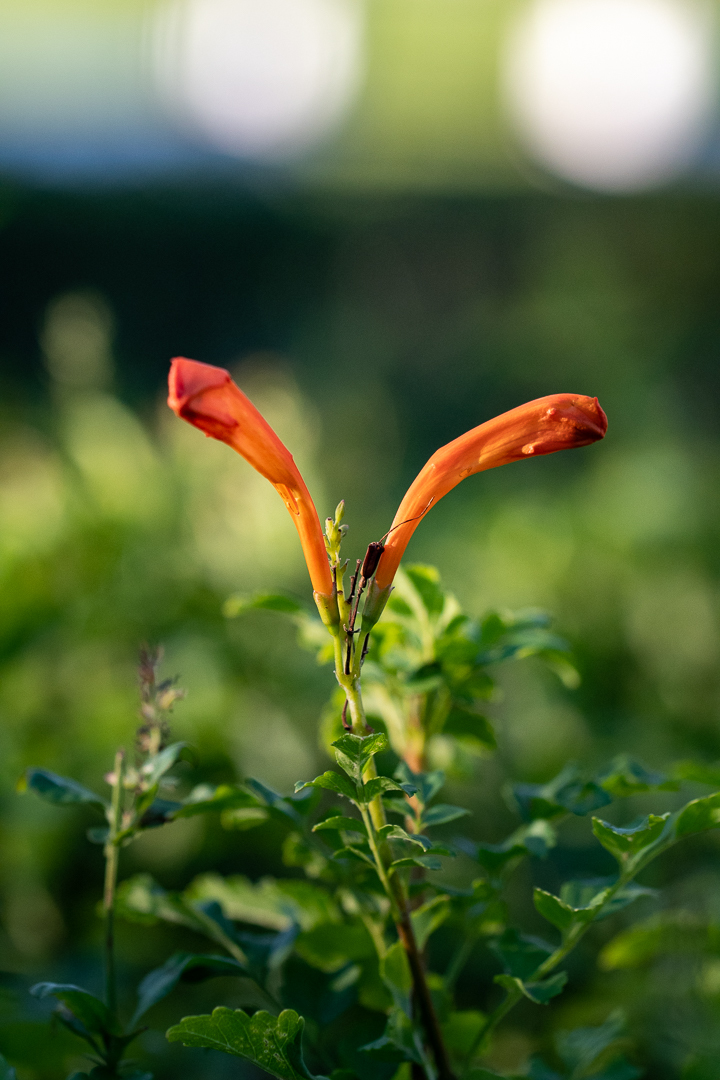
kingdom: Plantae
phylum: Tracheophyta
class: Magnoliopsida
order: Lamiales
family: Bignoniaceae
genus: Tecomaria
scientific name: Tecomaria capensis
